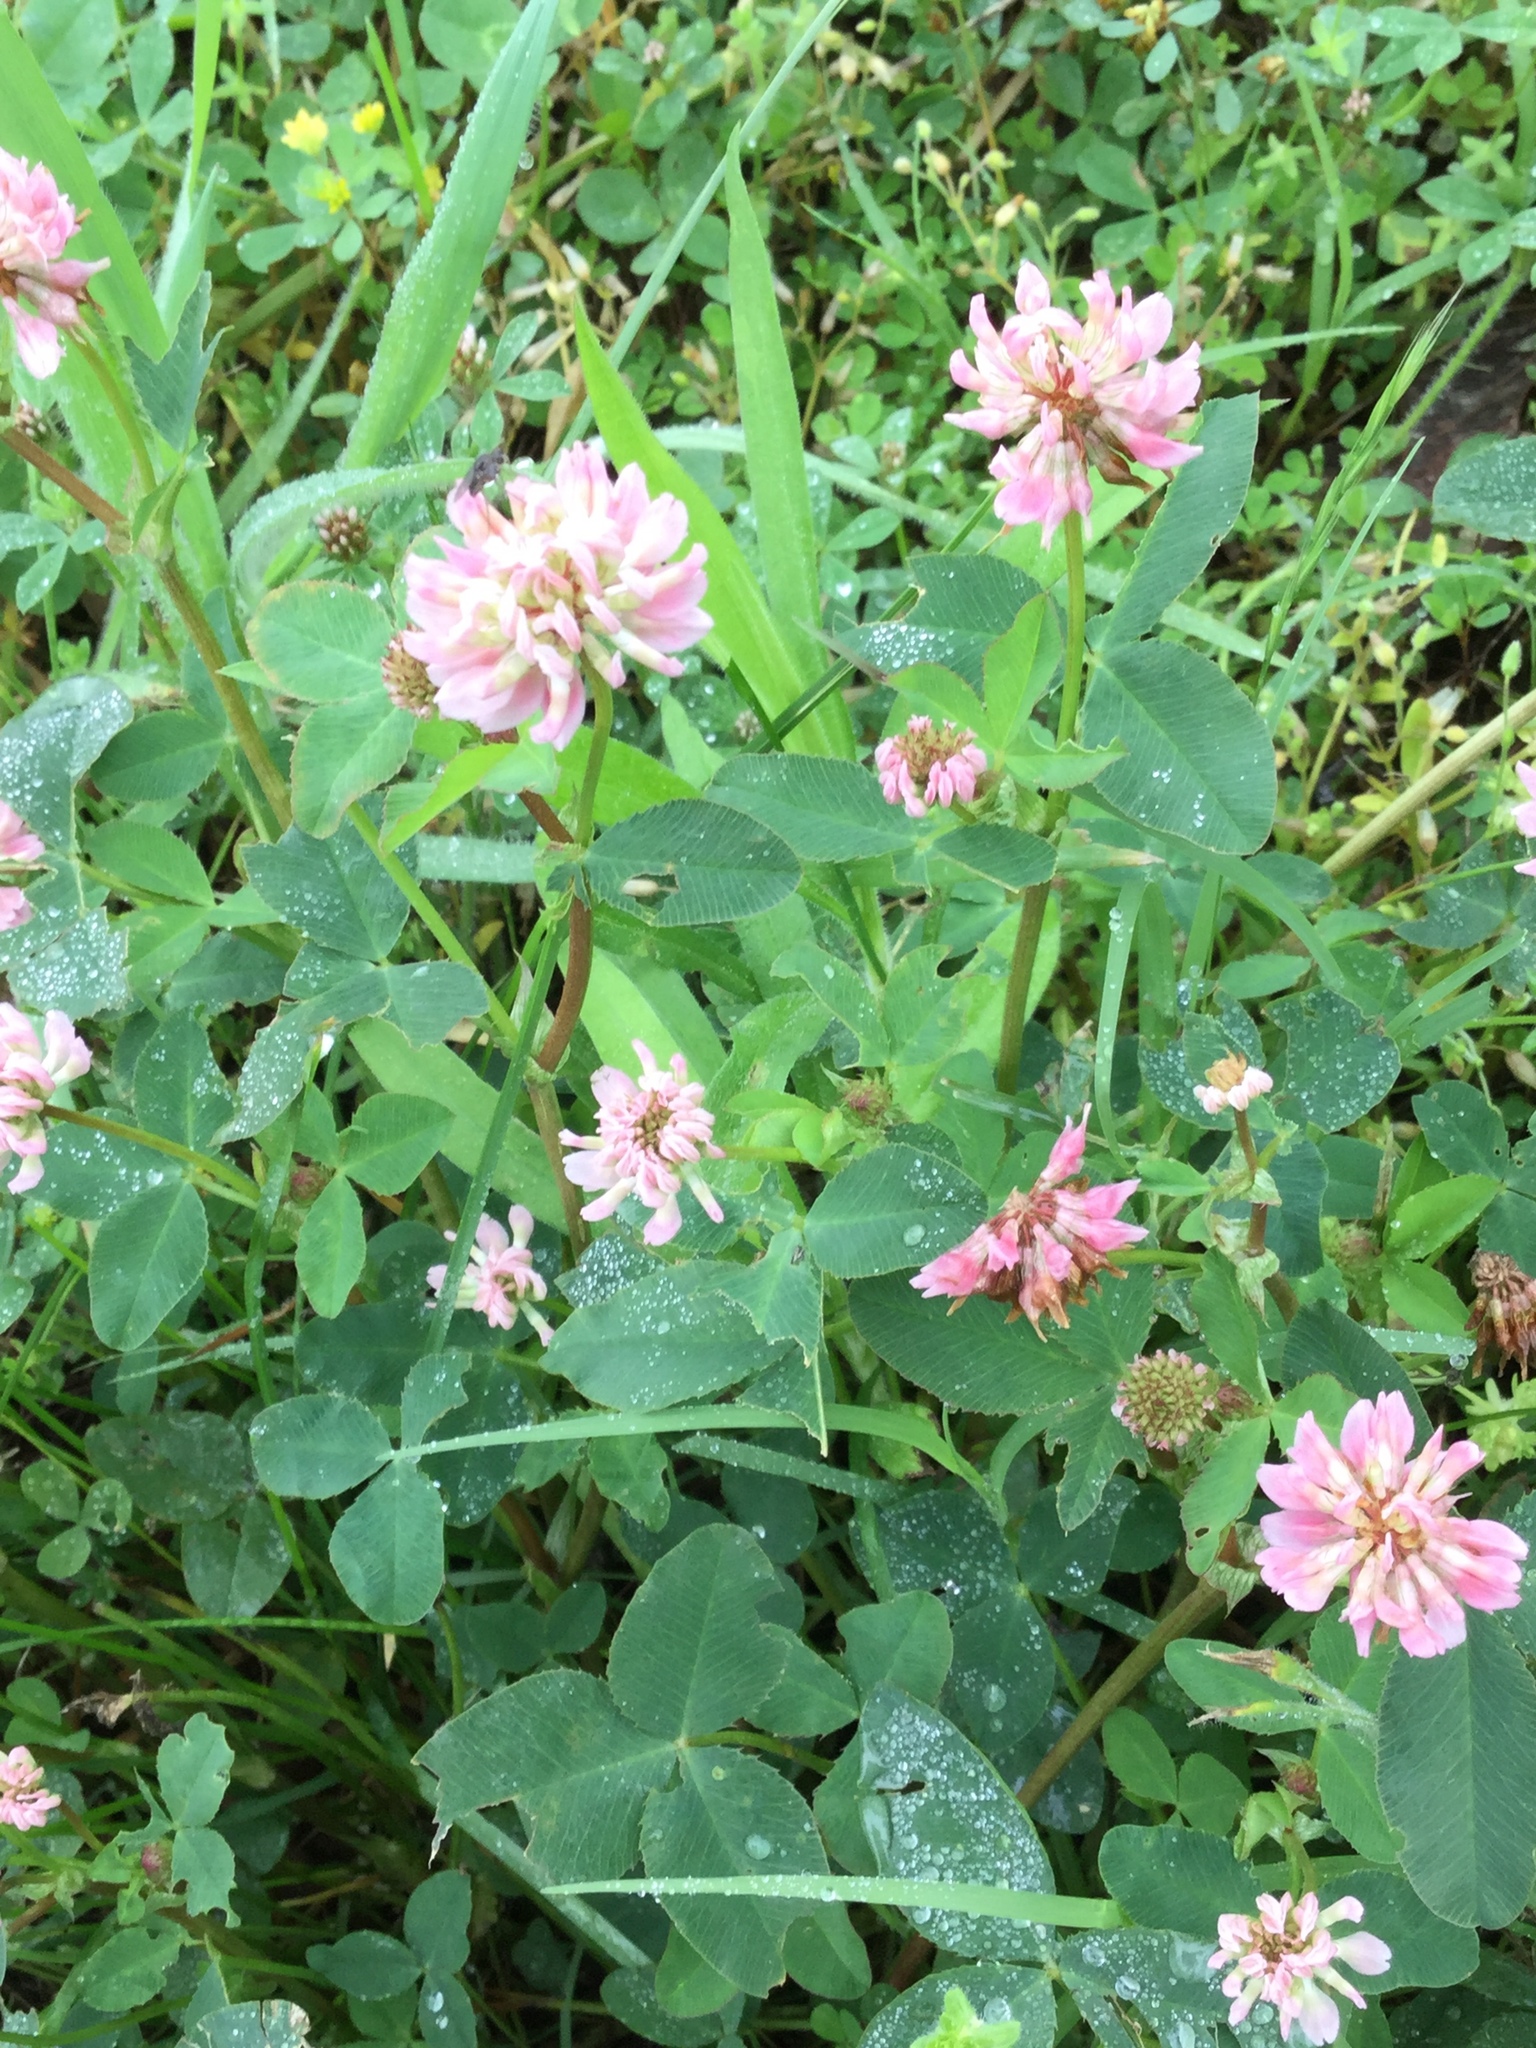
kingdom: Plantae
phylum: Tracheophyta
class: Magnoliopsida
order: Fabales
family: Fabaceae
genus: Trifolium
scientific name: Trifolium hybridum
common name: Alsike clover
